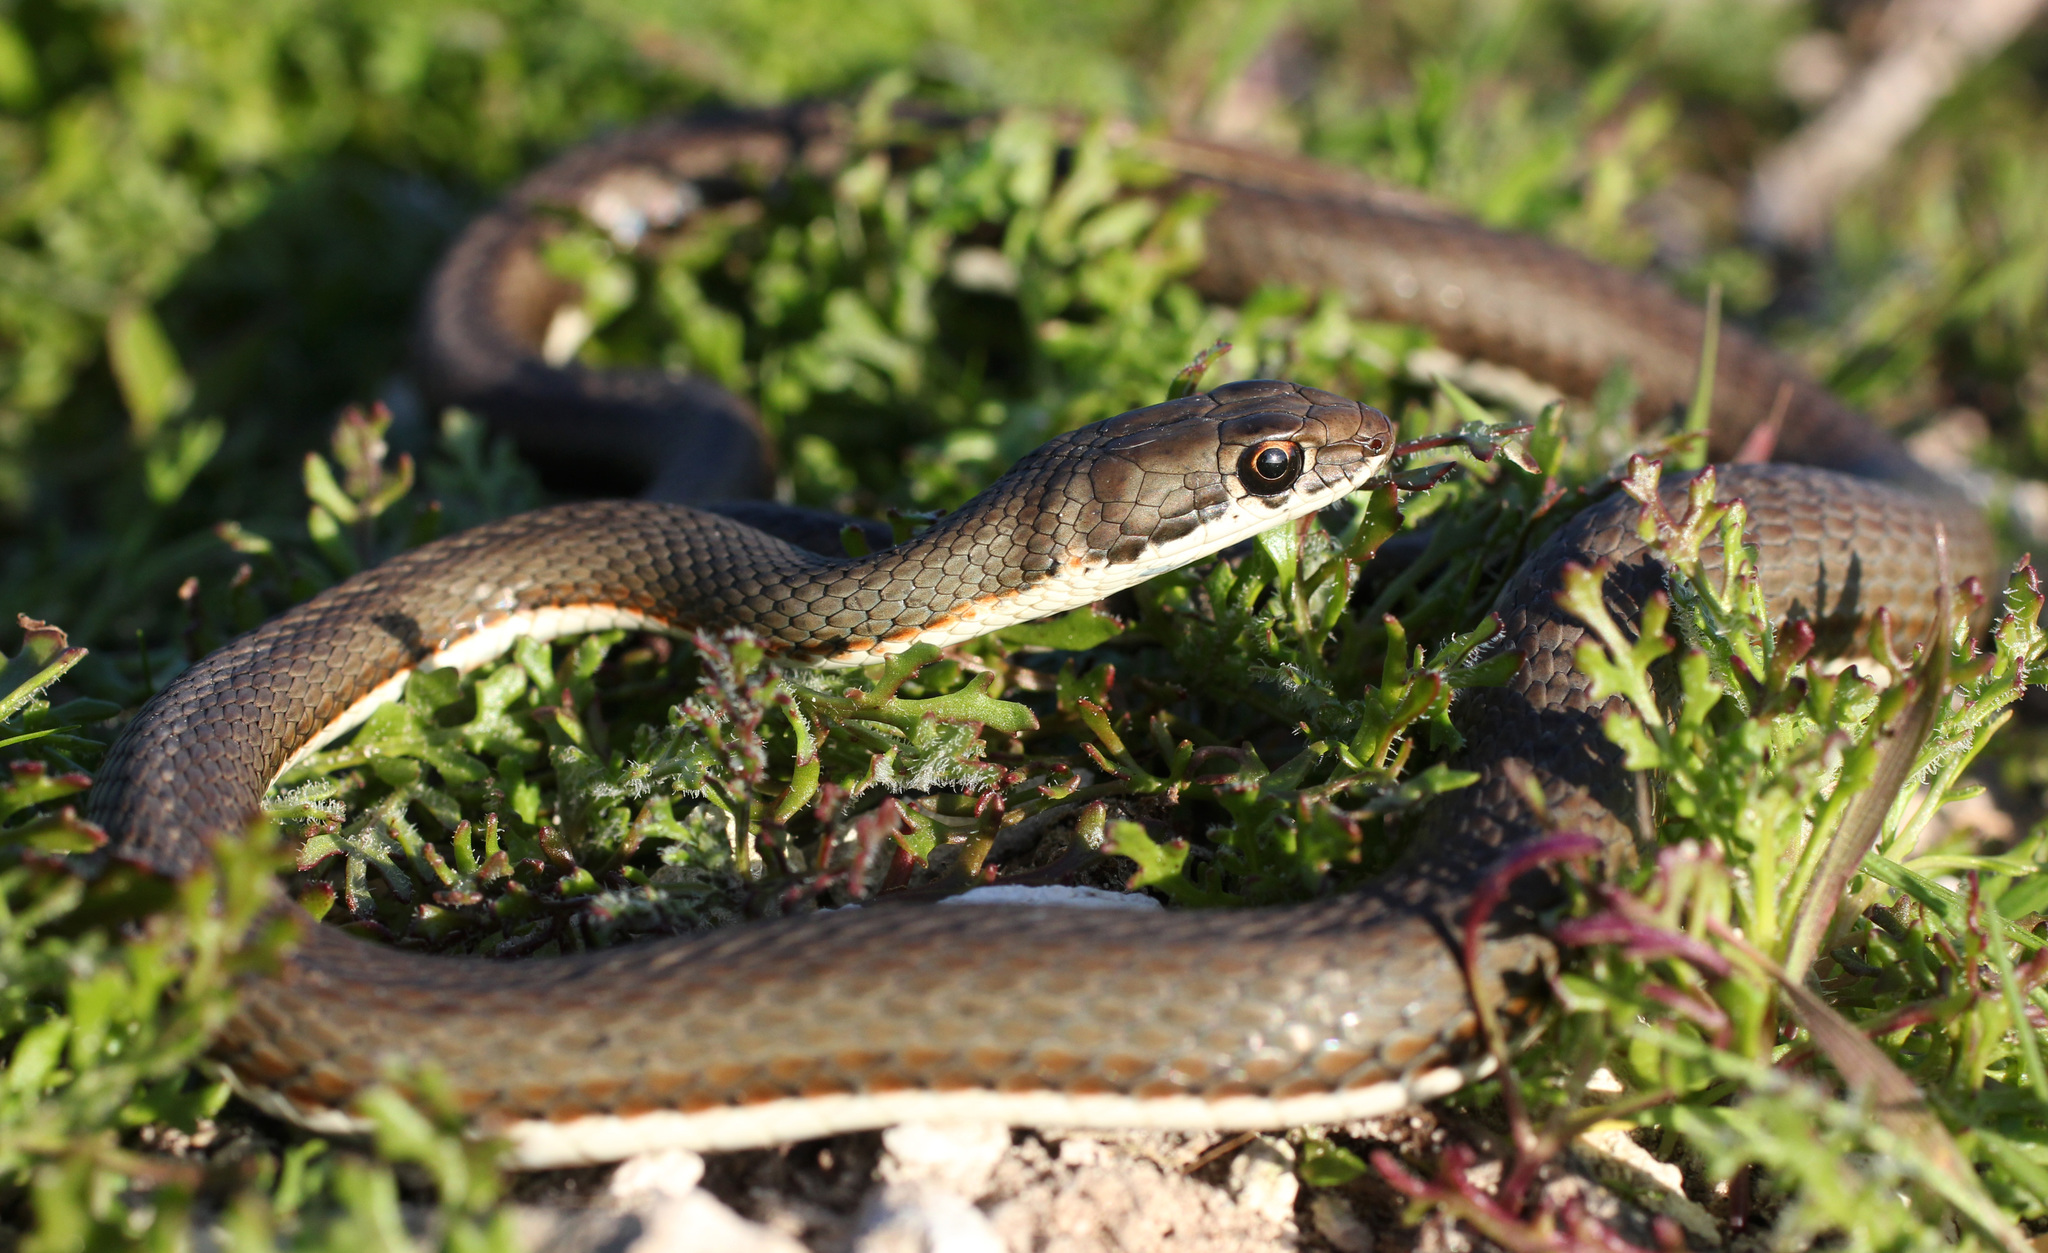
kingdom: Animalia
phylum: Chordata
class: Squamata
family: Psammophiidae
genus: Psammophis
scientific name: Psammophis notostictus
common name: Karoo sand snake
